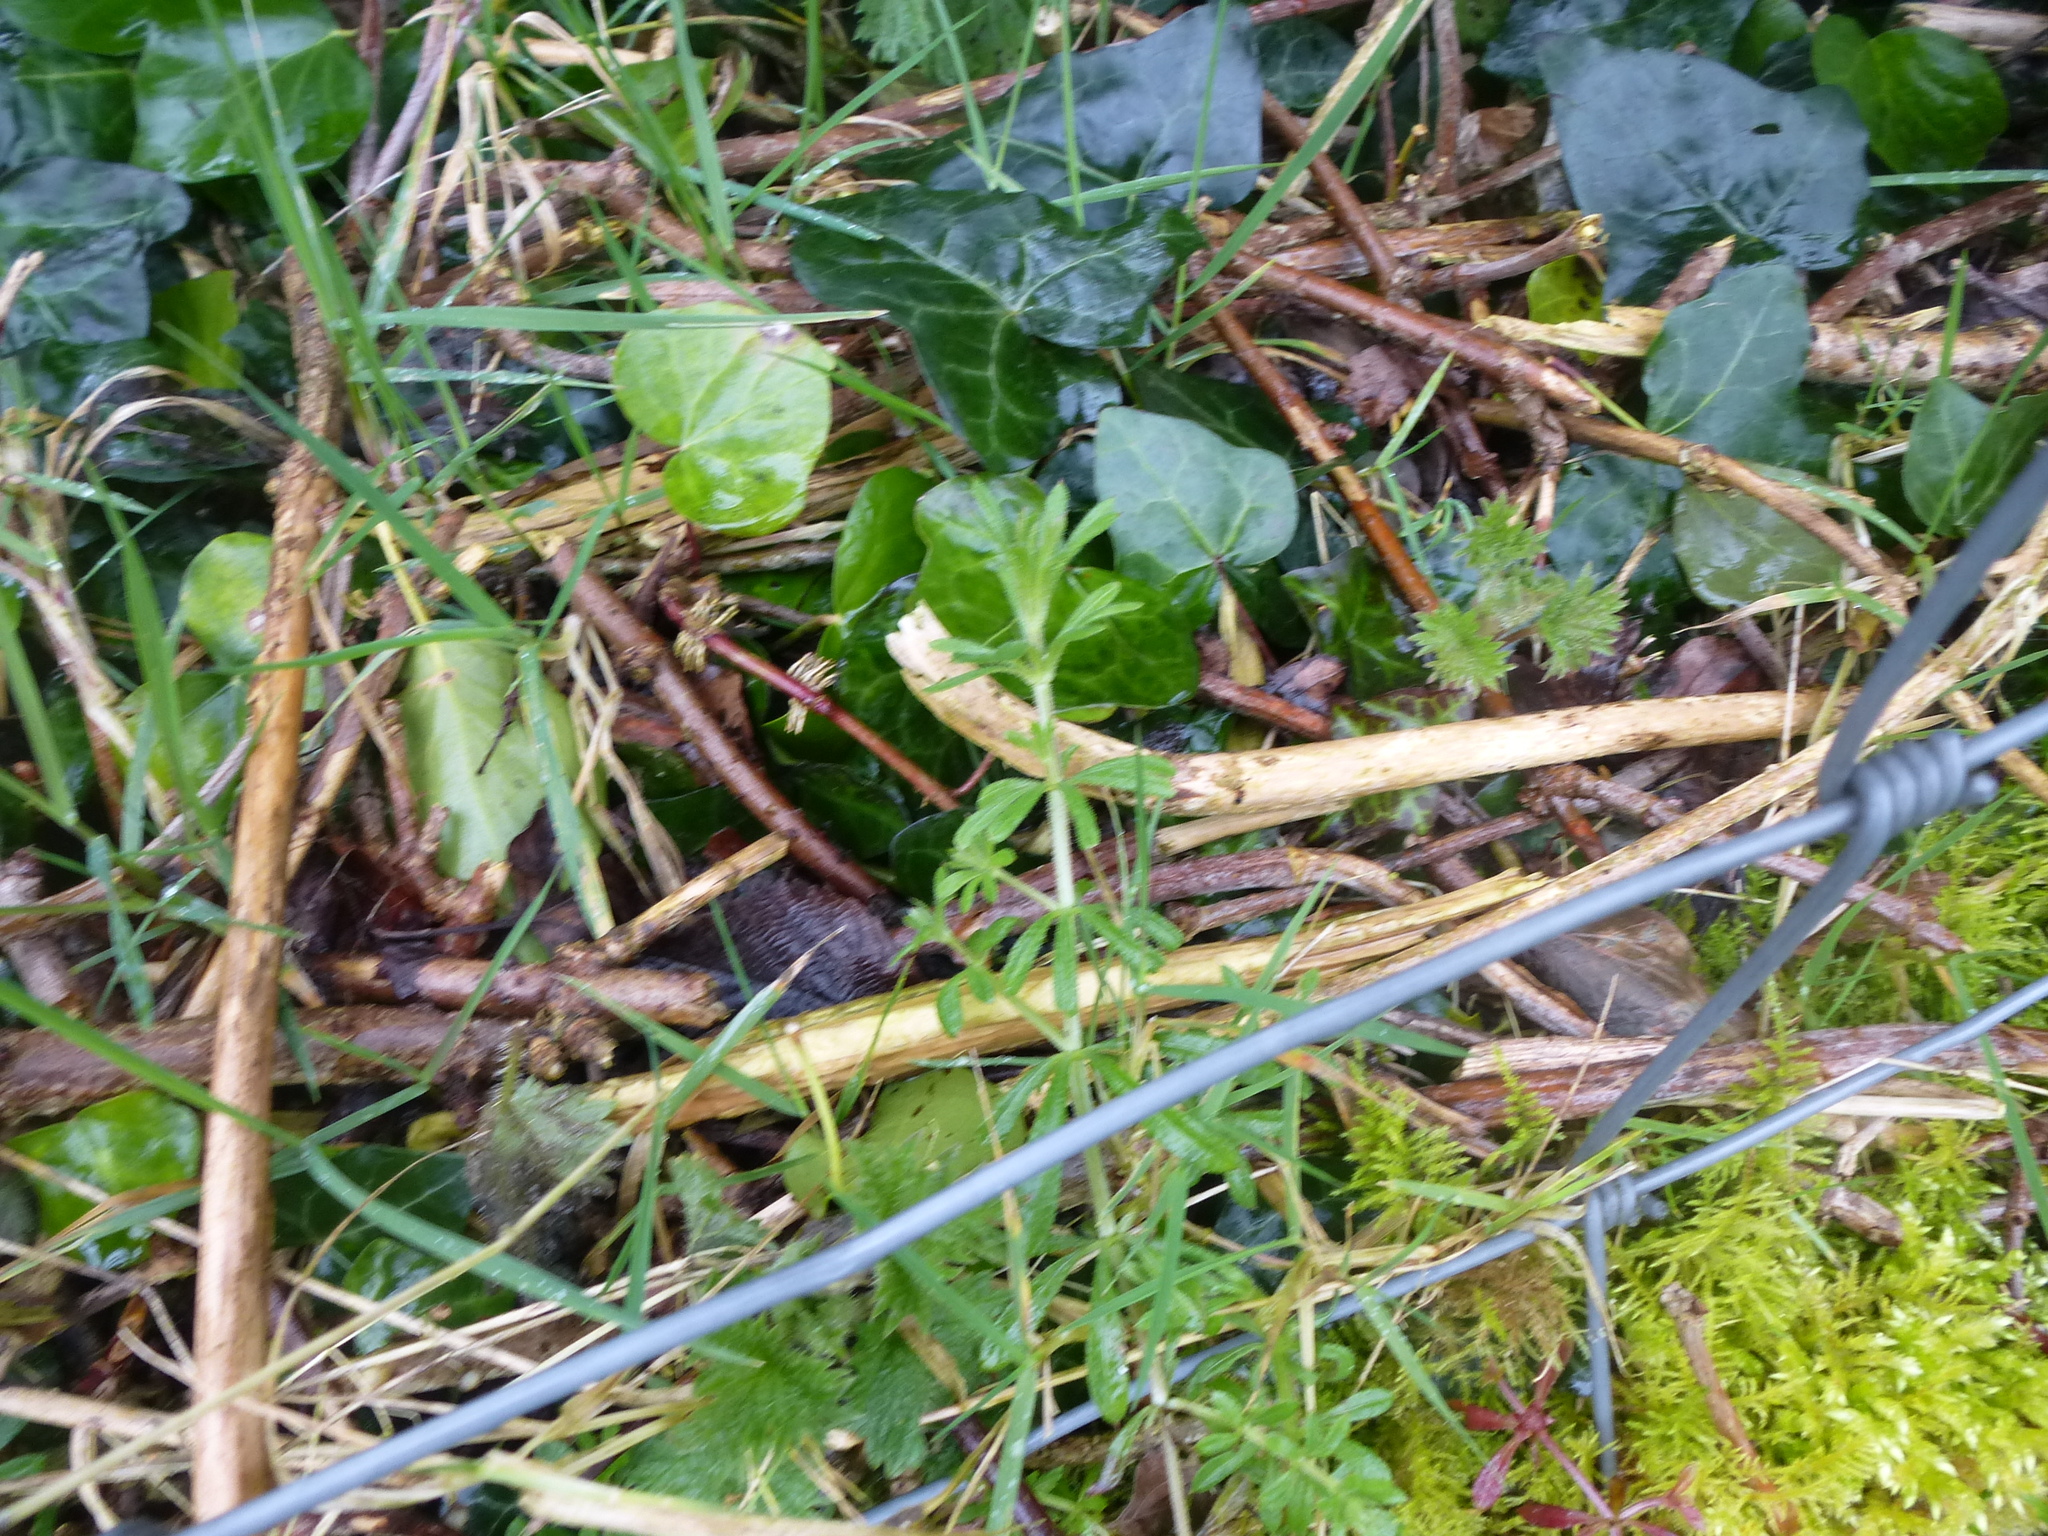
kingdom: Plantae
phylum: Tracheophyta
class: Magnoliopsida
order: Gentianales
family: Rubiaceae
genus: Galium
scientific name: Galium aparine
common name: Cleavers
